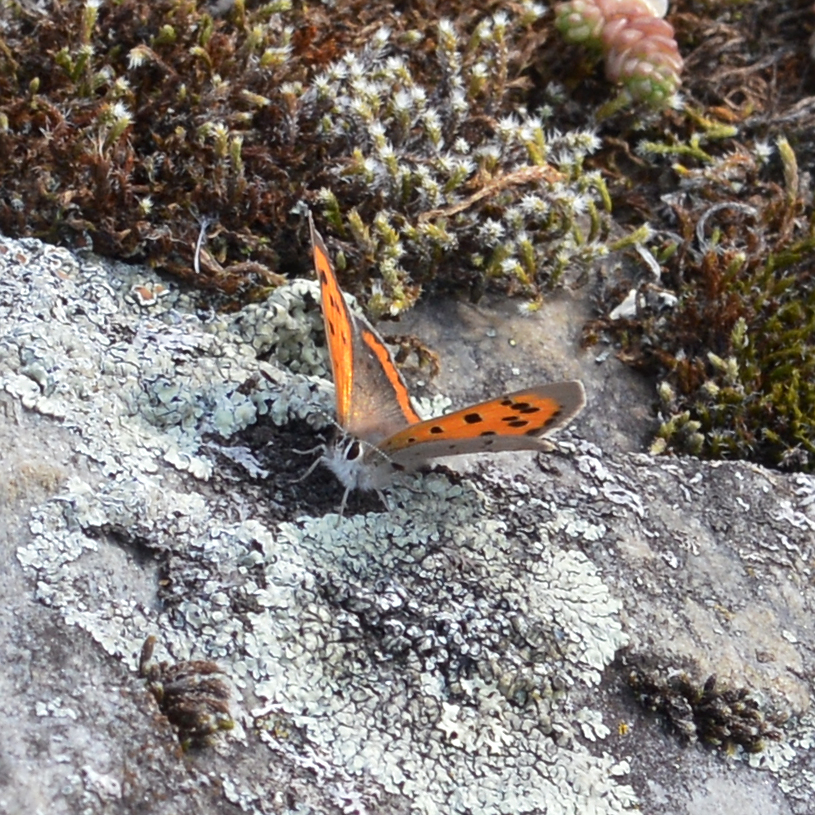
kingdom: Animalia
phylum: Arthropoda
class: Insecta
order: Lepidoptera
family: Lycaenidae
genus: Lycaena
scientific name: Lycaena phlaeas
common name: Small copper
